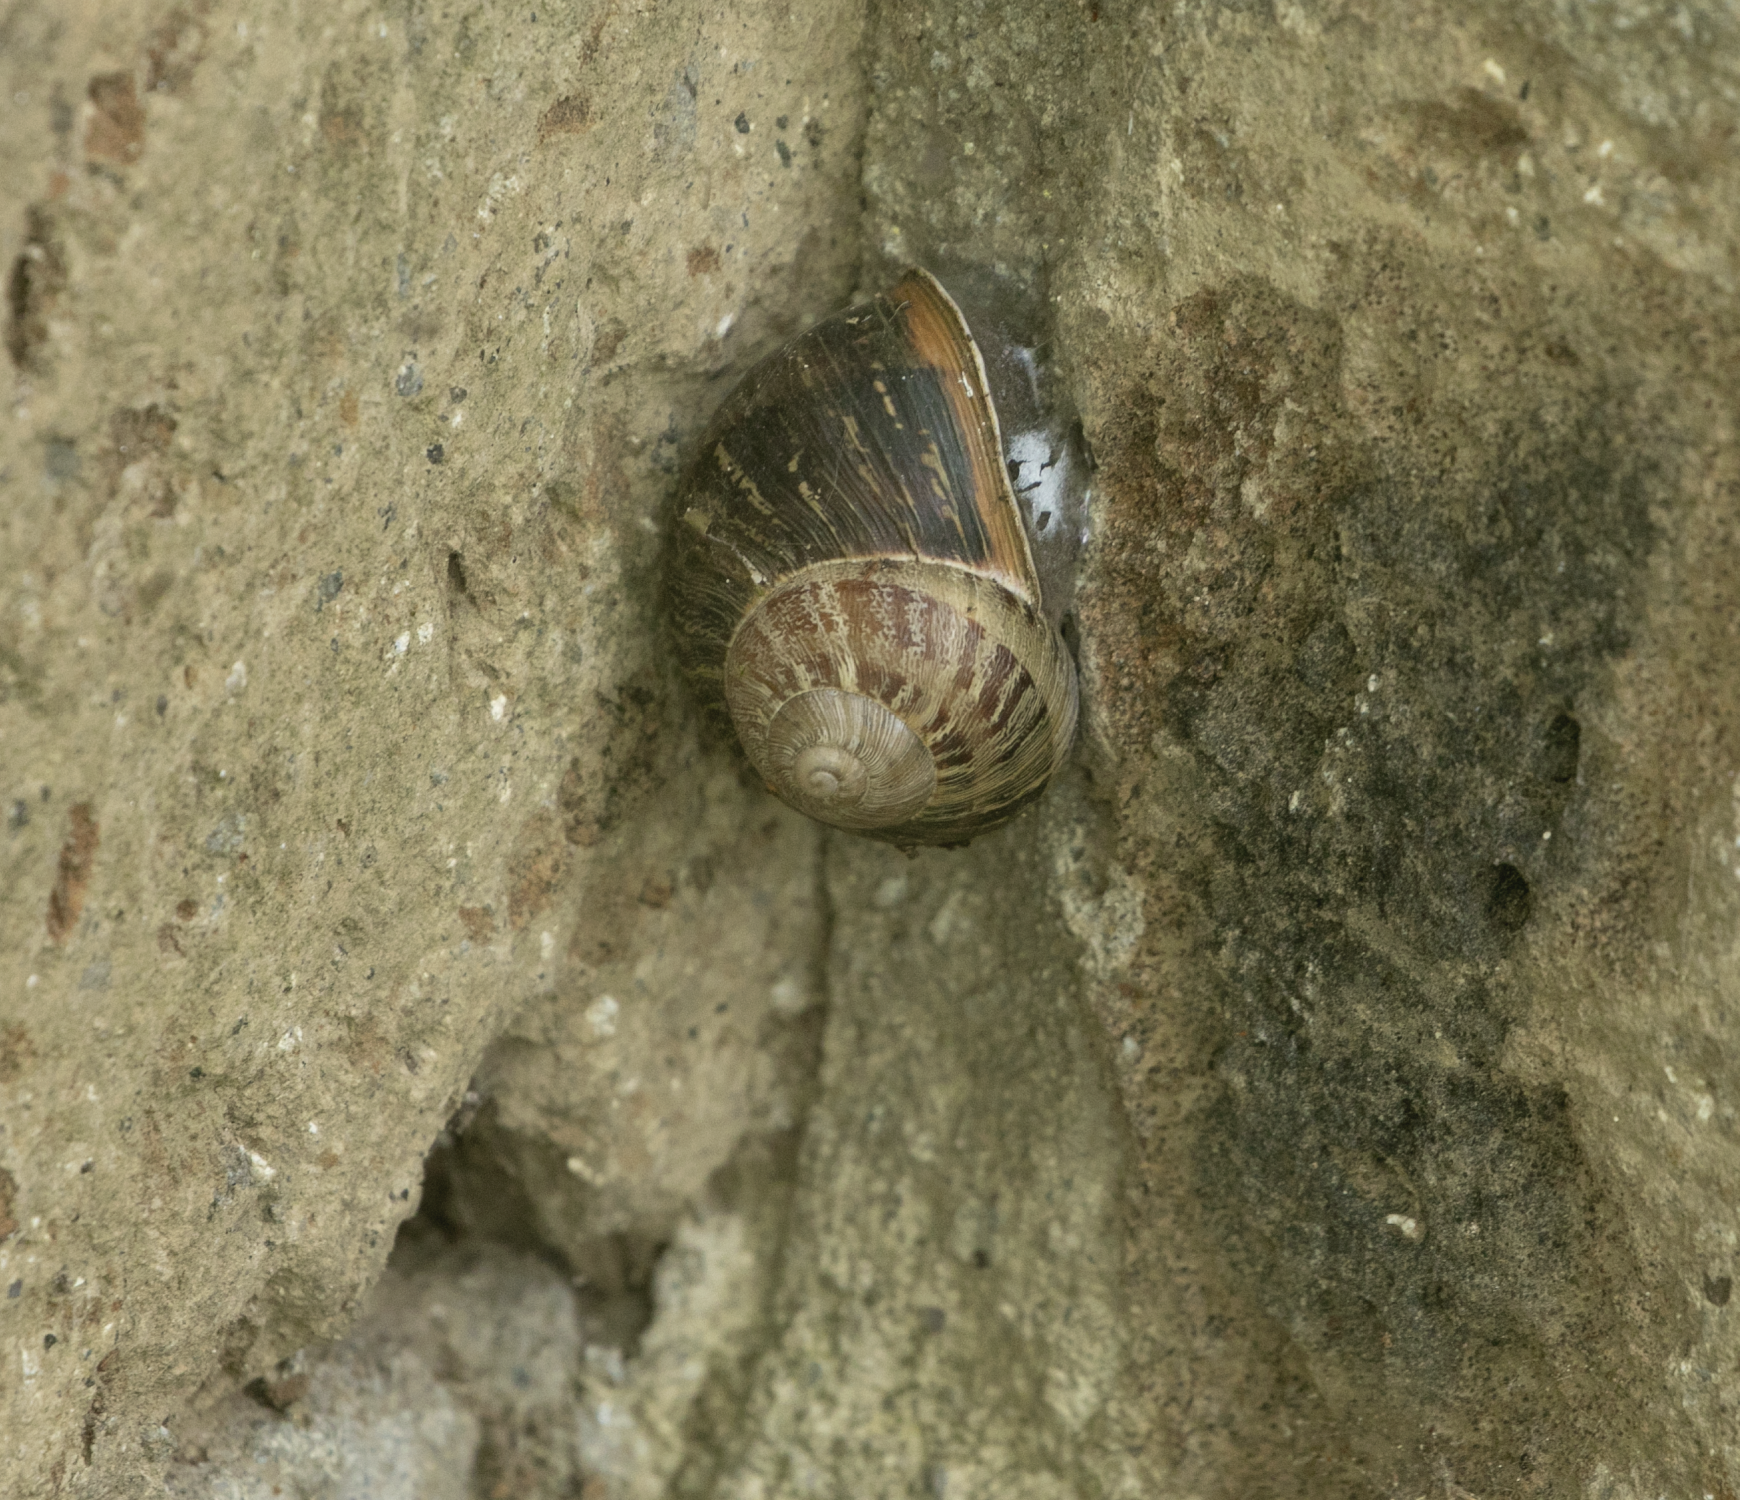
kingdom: Animalia
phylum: Mollusca
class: Gastropoda
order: Stylommatophora
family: Helicidae
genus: Cornu
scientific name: Cornu aspersum
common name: Brown garden snail
